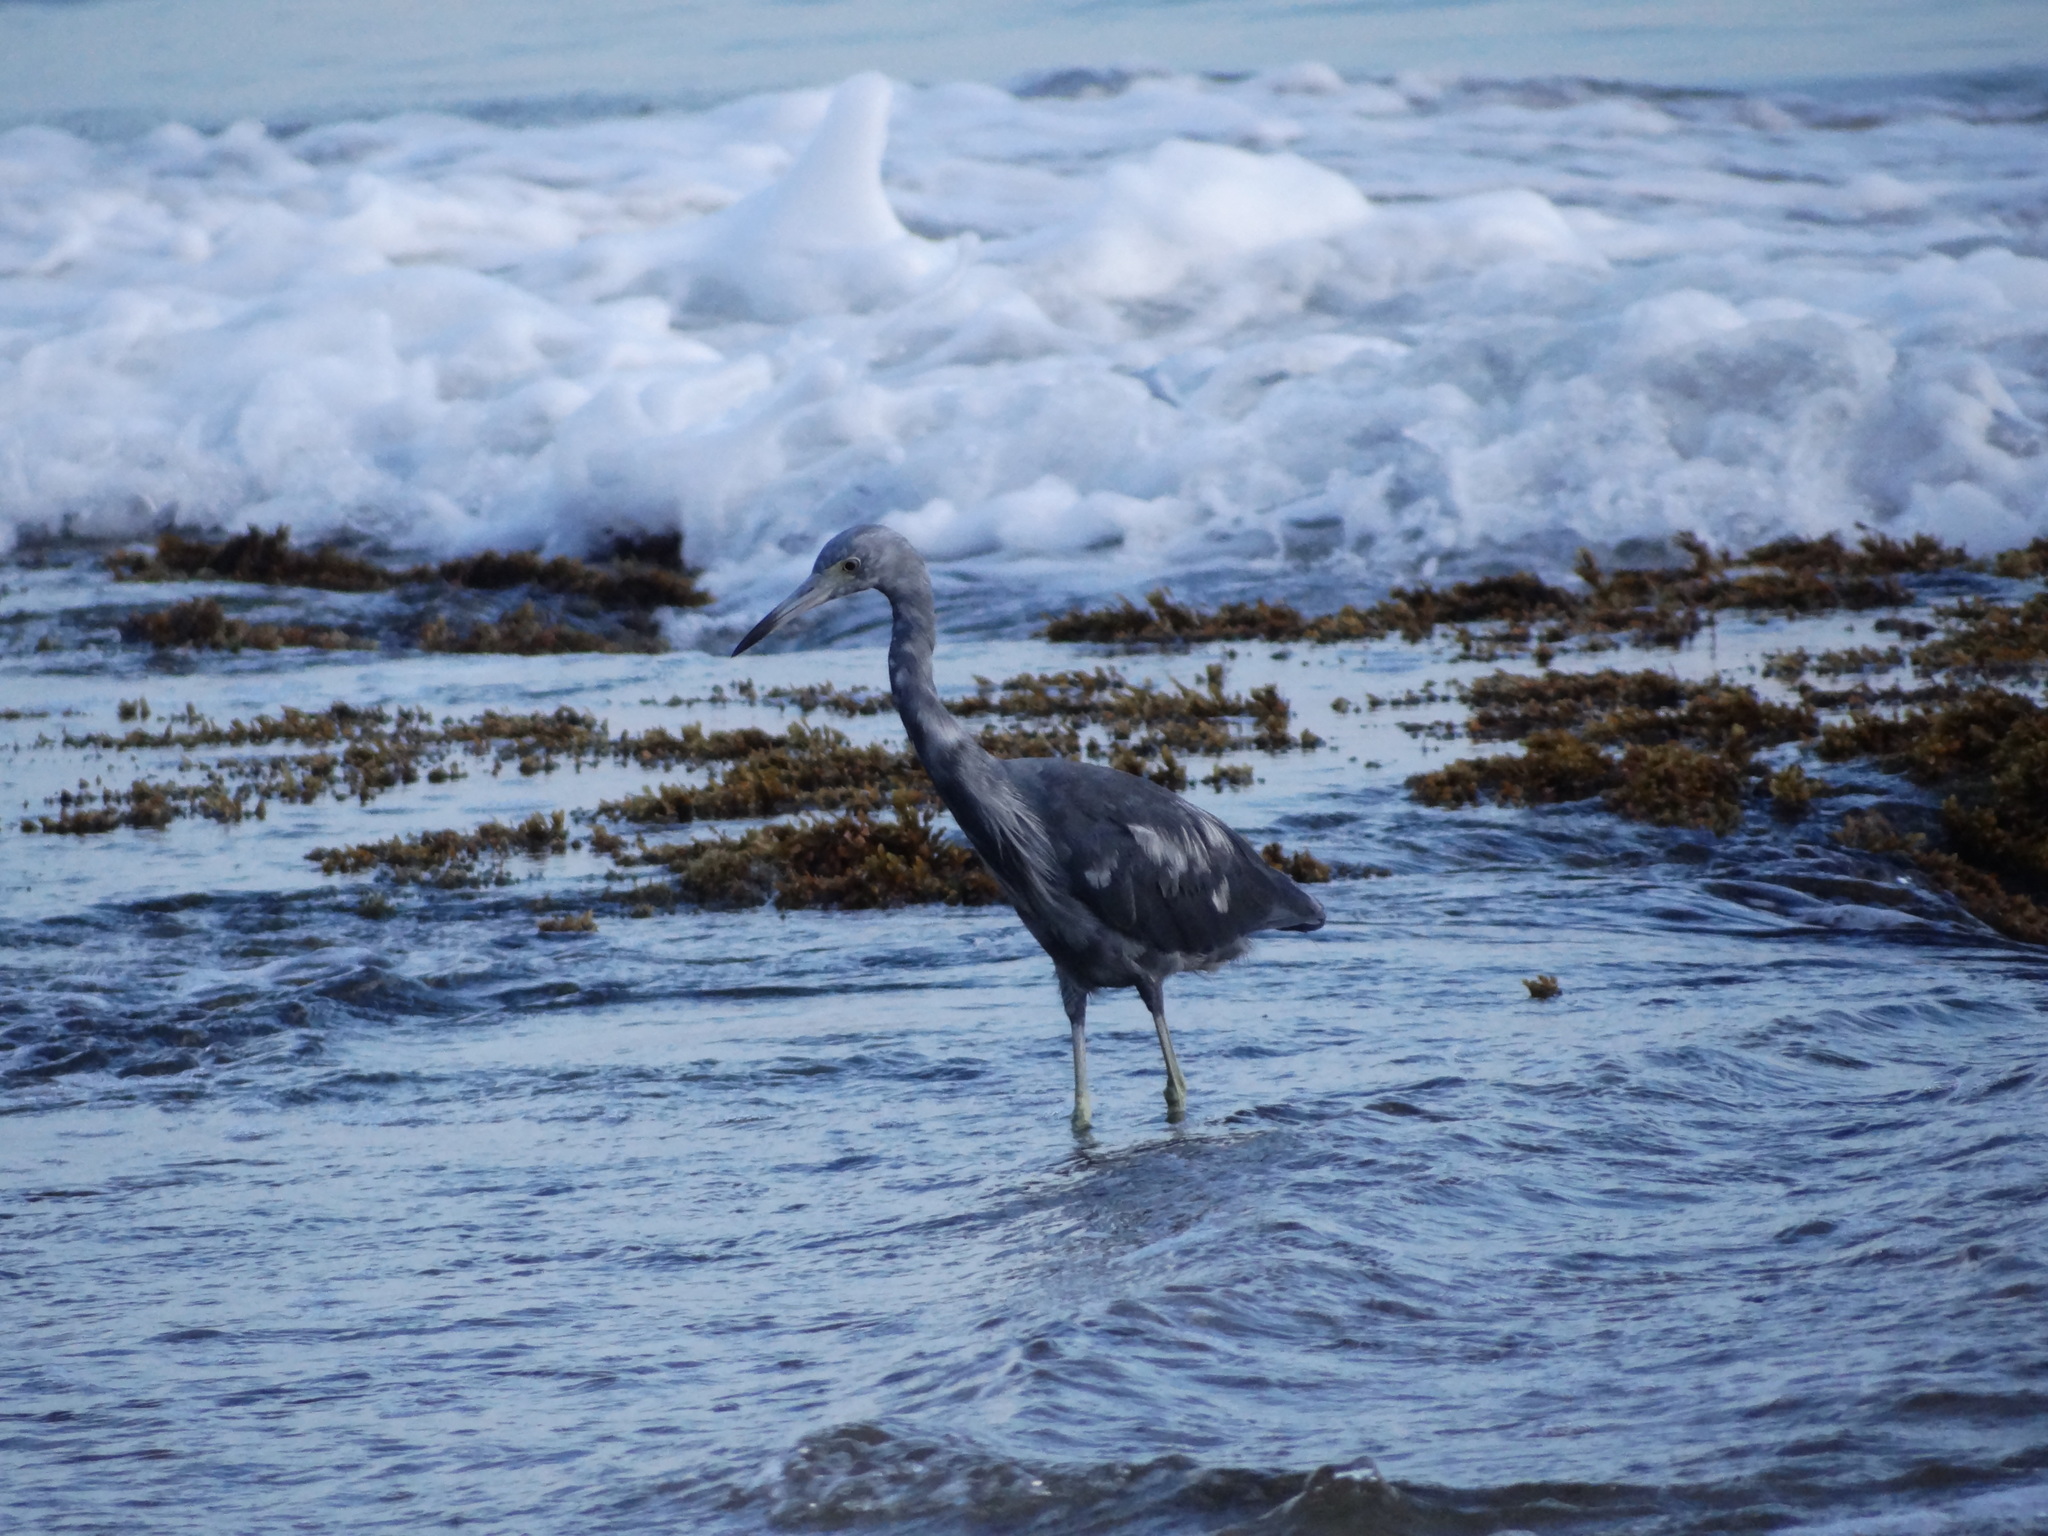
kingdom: Animalia
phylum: Chordata
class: Aves
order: Pelecaniformes
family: Ardeidae
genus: Egretta
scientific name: Egretta caerulea
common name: Little blue heron
